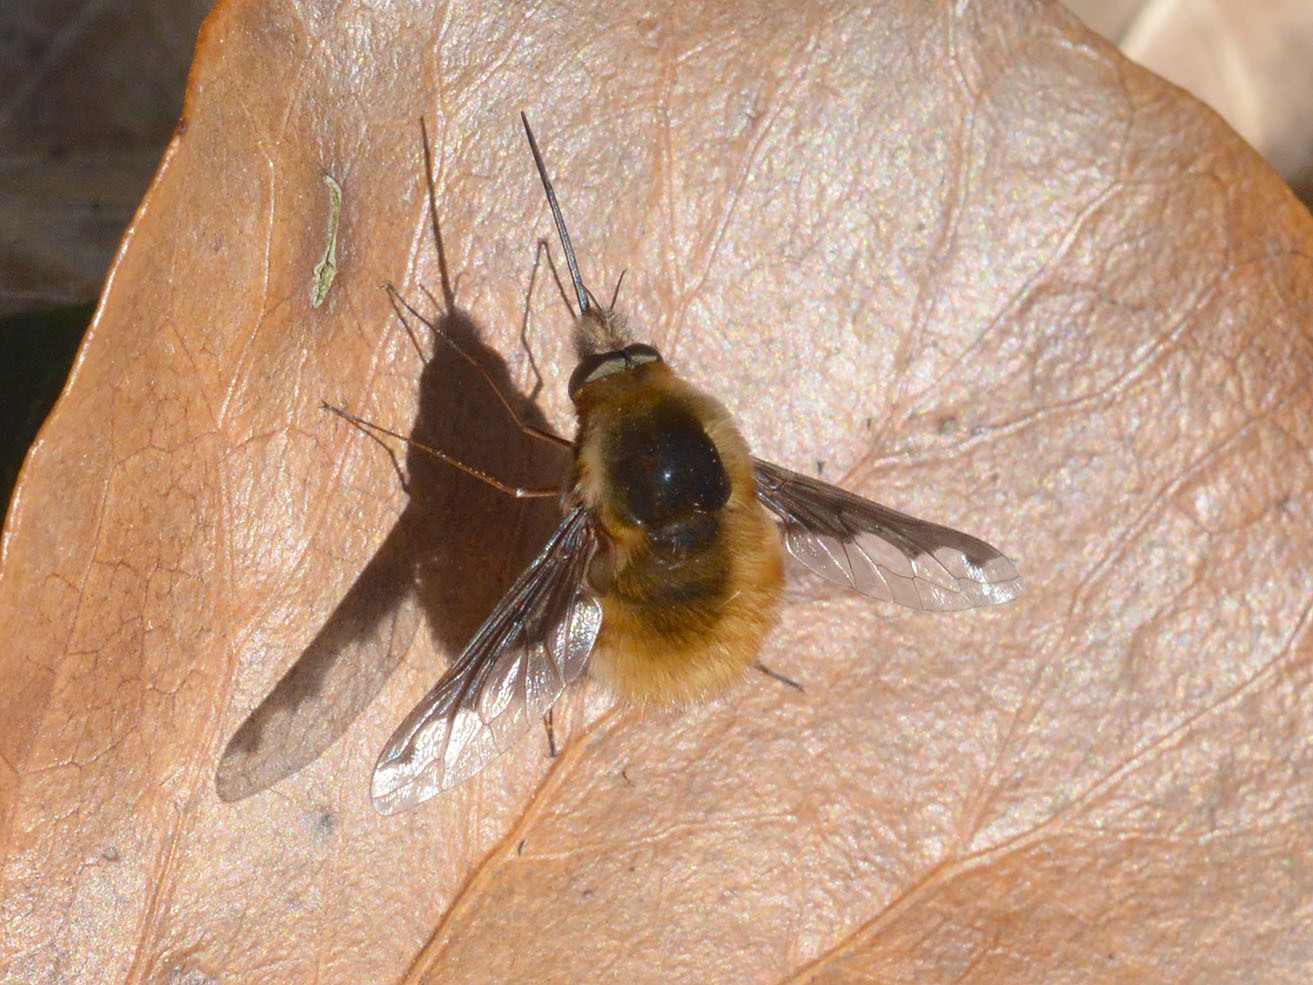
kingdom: Animalia
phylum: Arthropoda
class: Insecta
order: Diptera
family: Bombyliidae
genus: Bombylius
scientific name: Bombylius major
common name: Bee fly
